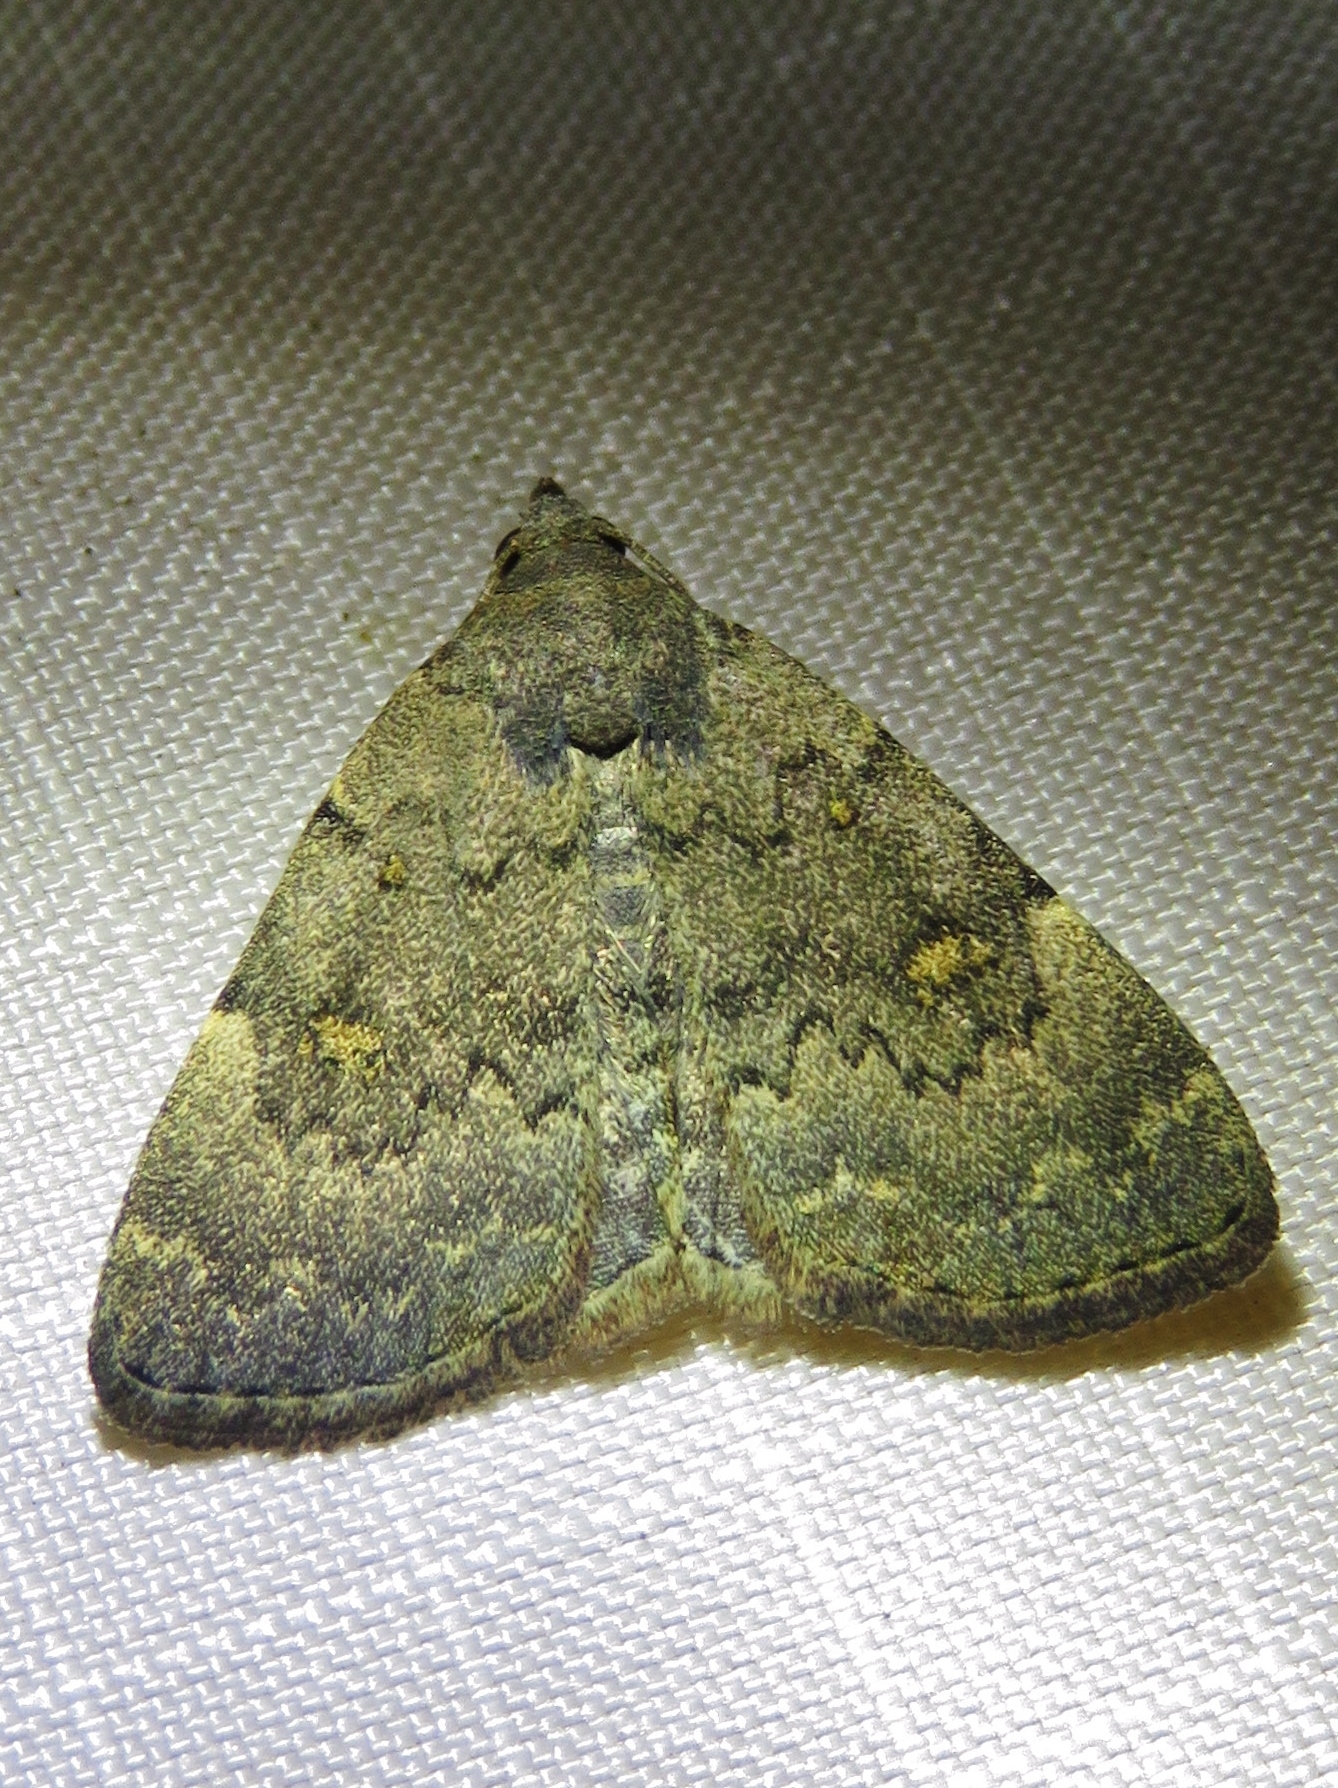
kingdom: Animalia
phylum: Arthropoda
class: Insecta
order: Lepidoptera
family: Erebidae
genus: Idia
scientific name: Idia aemula
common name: Common idia moth
